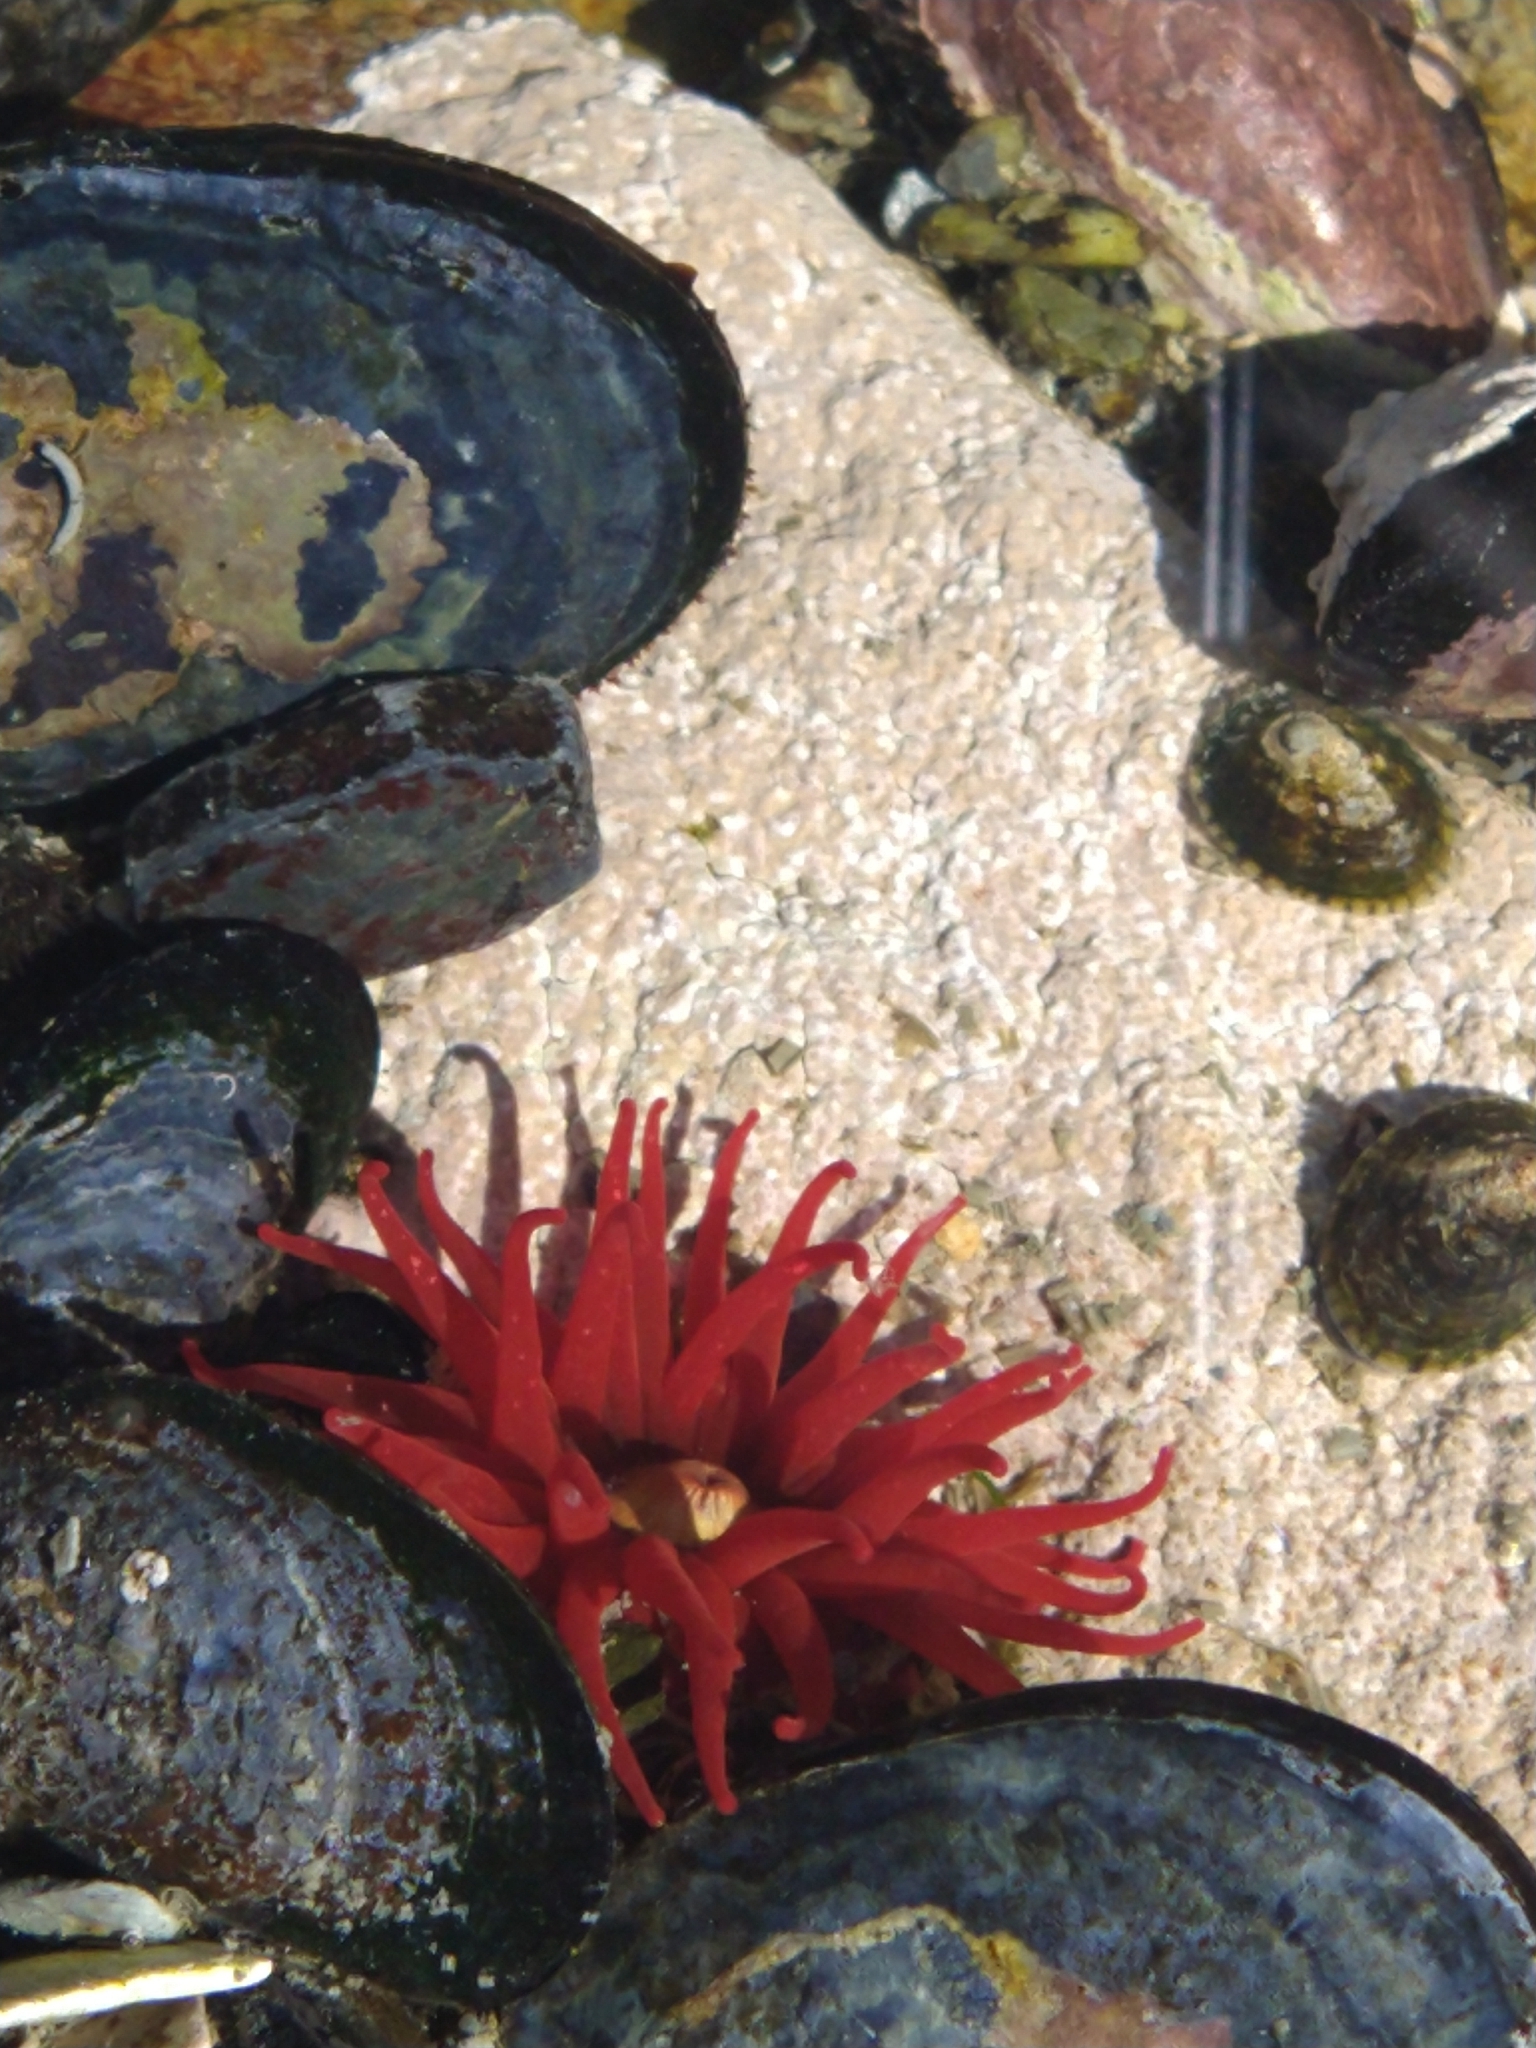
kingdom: Animalia
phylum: Cnidaria
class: Anthozoa
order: Actiniaria
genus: Paractis
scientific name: Paractis impatiens
